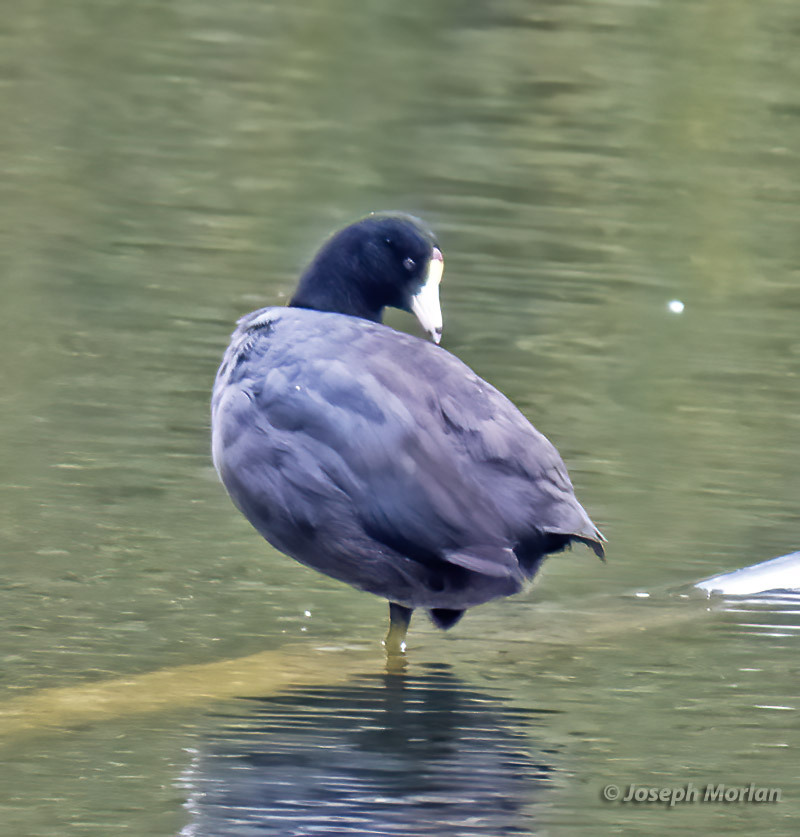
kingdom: Animalia
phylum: Chordata
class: Aves
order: Gruiformes
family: Rallidae
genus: Fulica
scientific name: Fulica americana
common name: American coot
